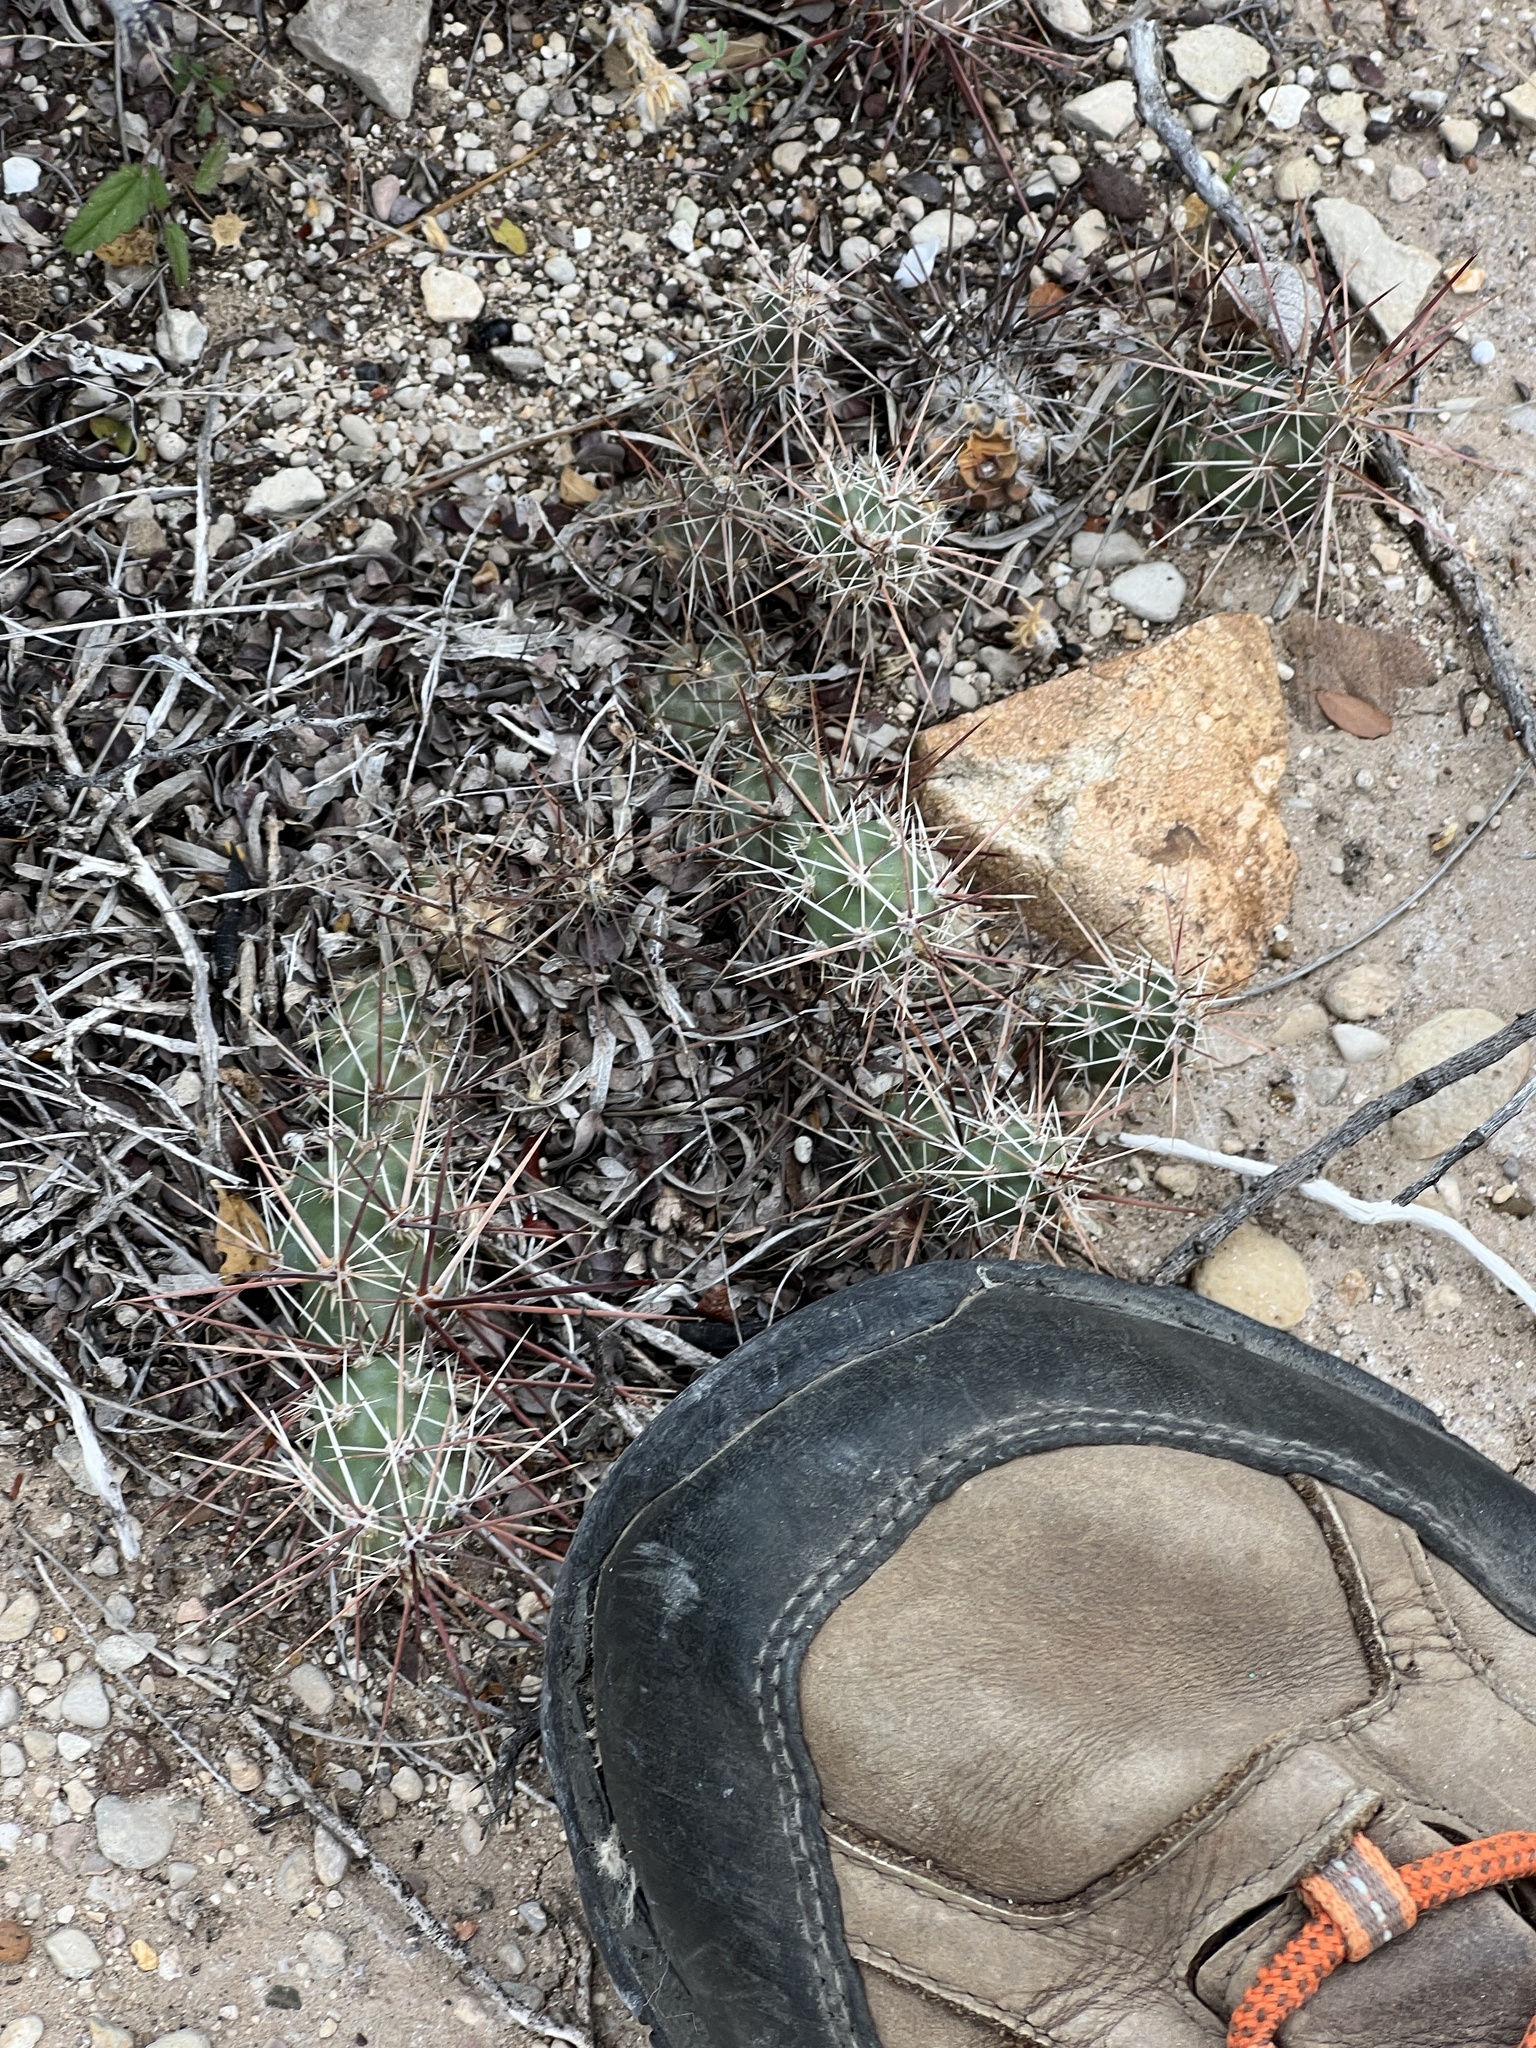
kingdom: Plantae
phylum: Tracheophyta
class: Magnoliopsida
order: Caryophyllales
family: Cactaceae
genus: Grusonia
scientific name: Grusonia schottii
